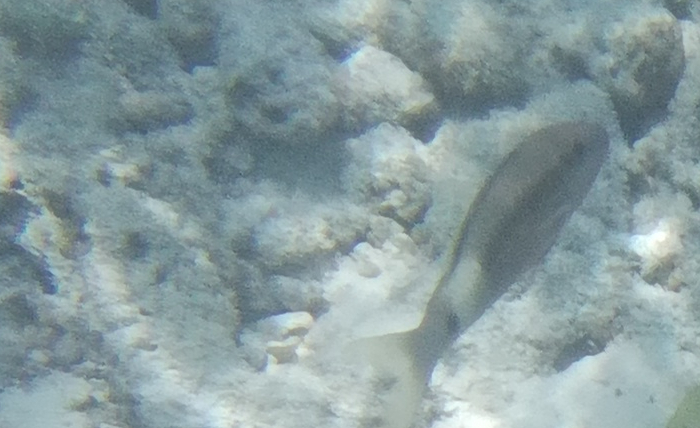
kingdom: Animalia
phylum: Chordata
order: Perciformes
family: Mullidae
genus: Parupeneus
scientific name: Parupeneus macronemus
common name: Long-barbel goatfish
